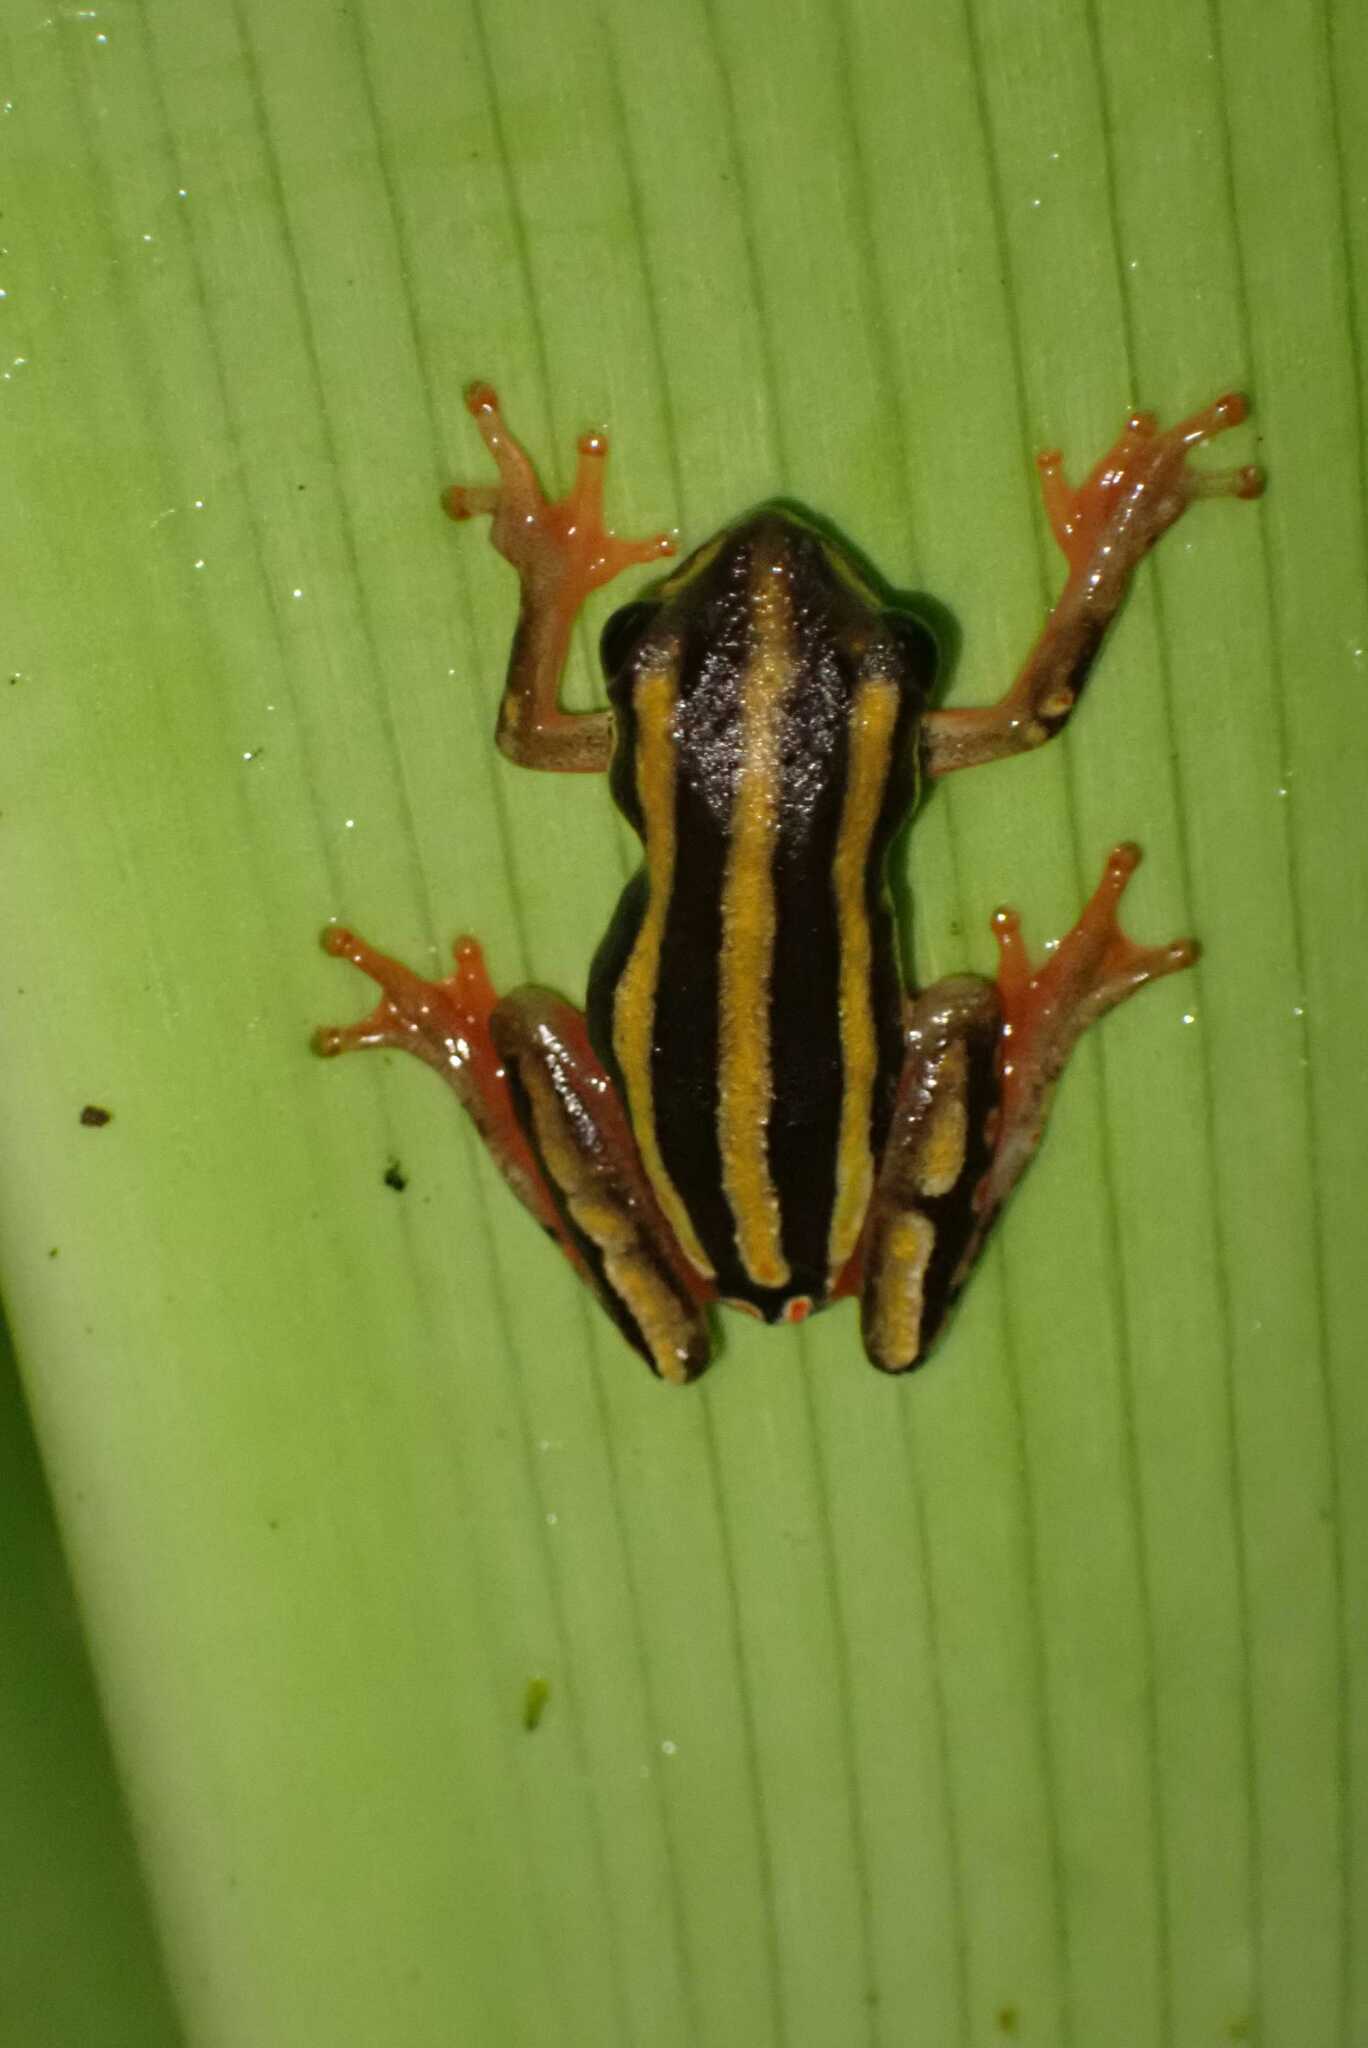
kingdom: Animalia
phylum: Chordata
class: Amphibia
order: Anura
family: Hyperoliidae
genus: Hyperolius
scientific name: Hyperolius marmoratus
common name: Painted reed frog
